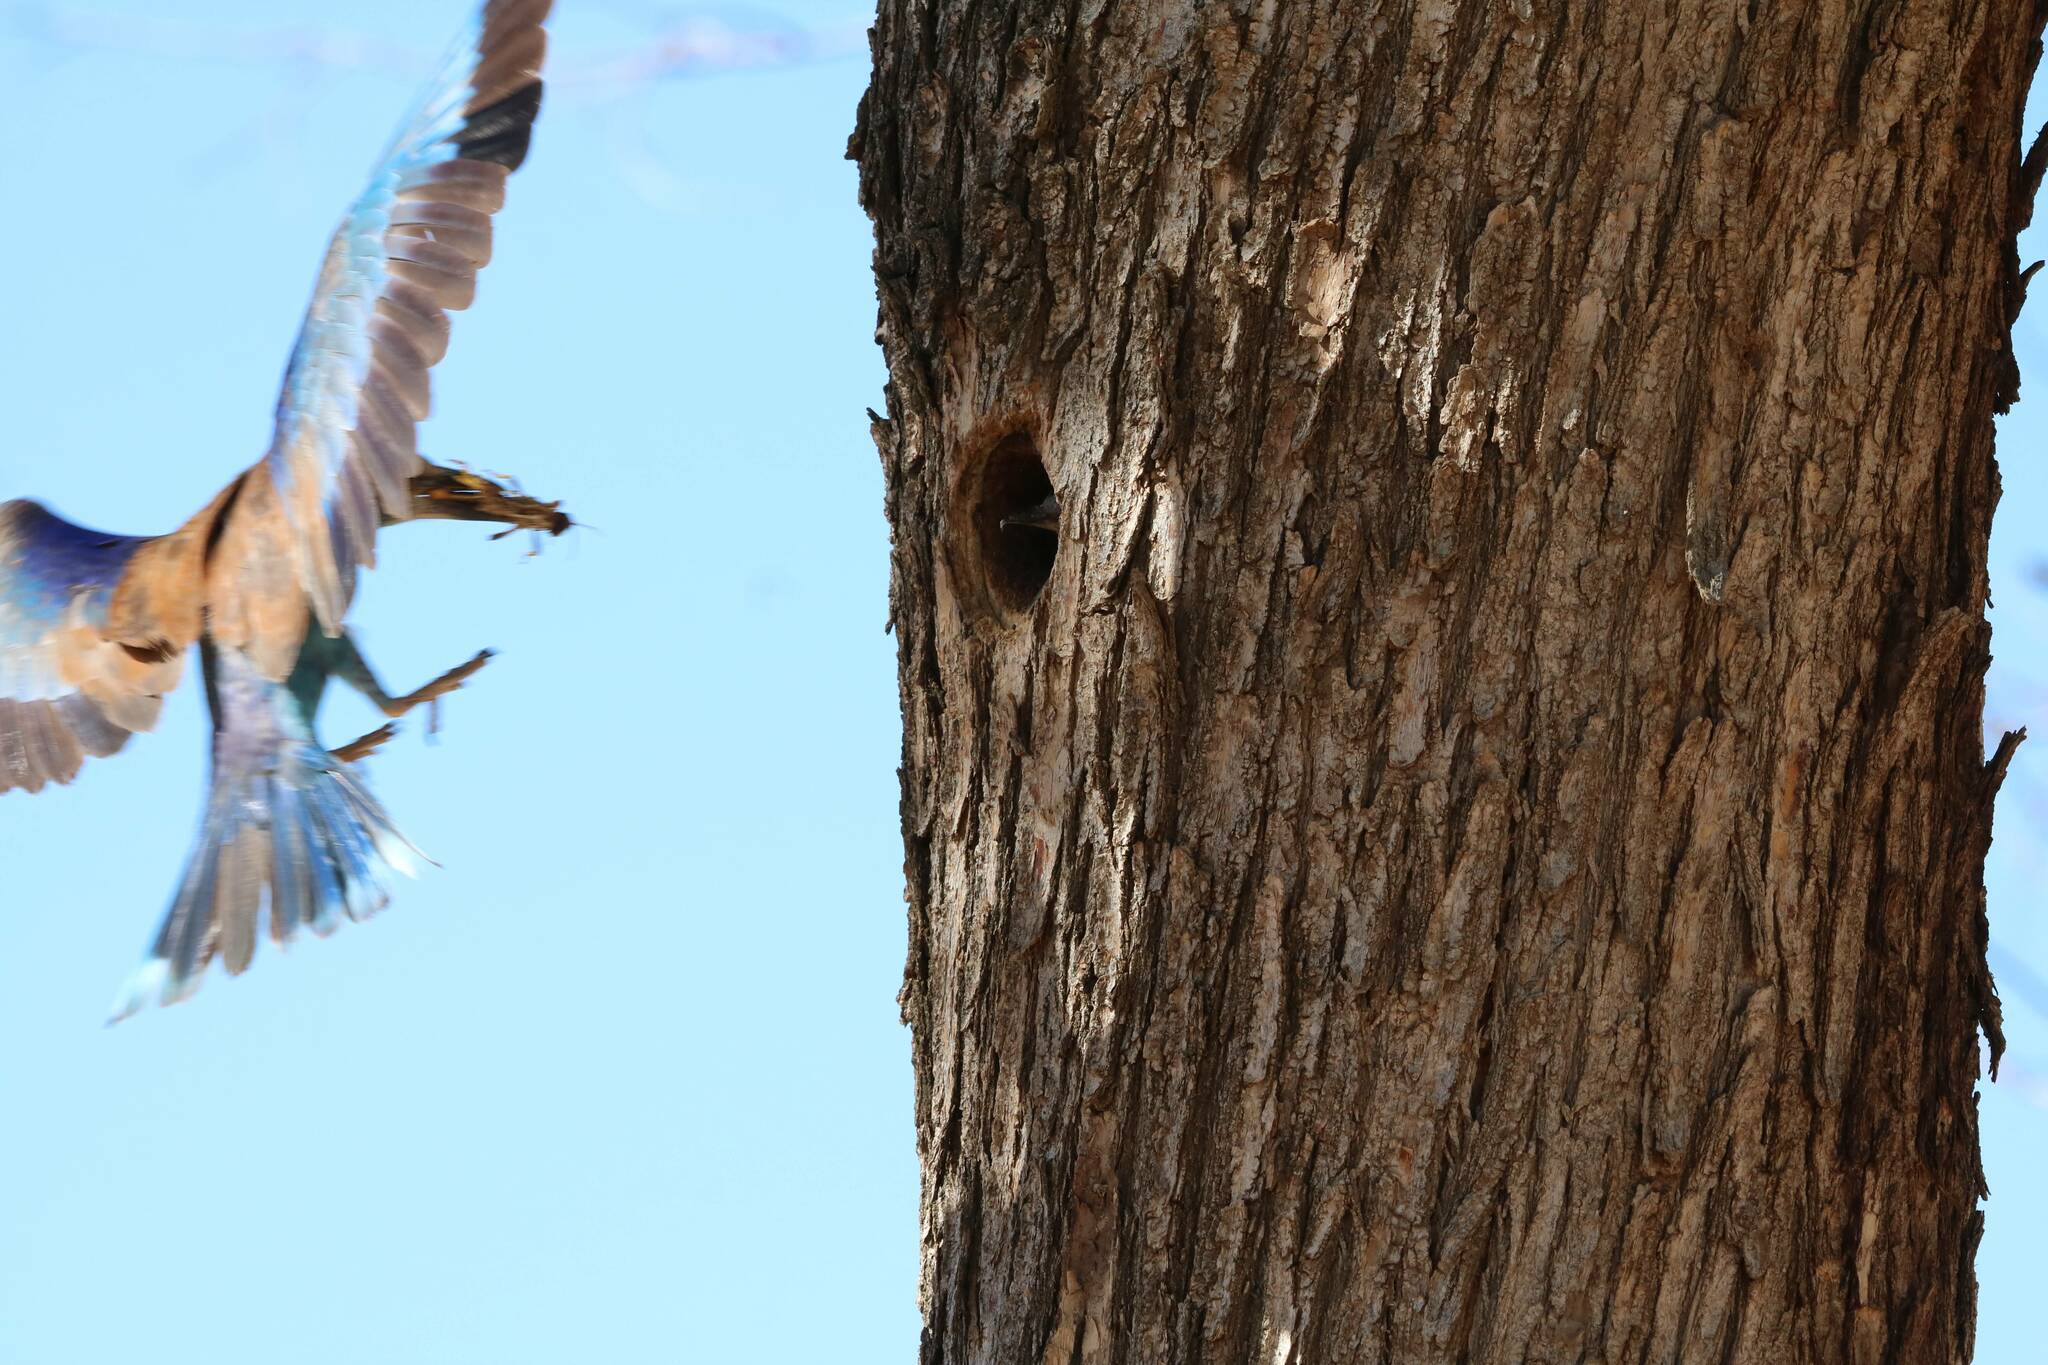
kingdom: Animalia
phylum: Chordata
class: Aves
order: Coraciiformes
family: Coraciidae
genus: Coracias
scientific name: Coracias garrulus
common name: European roller
